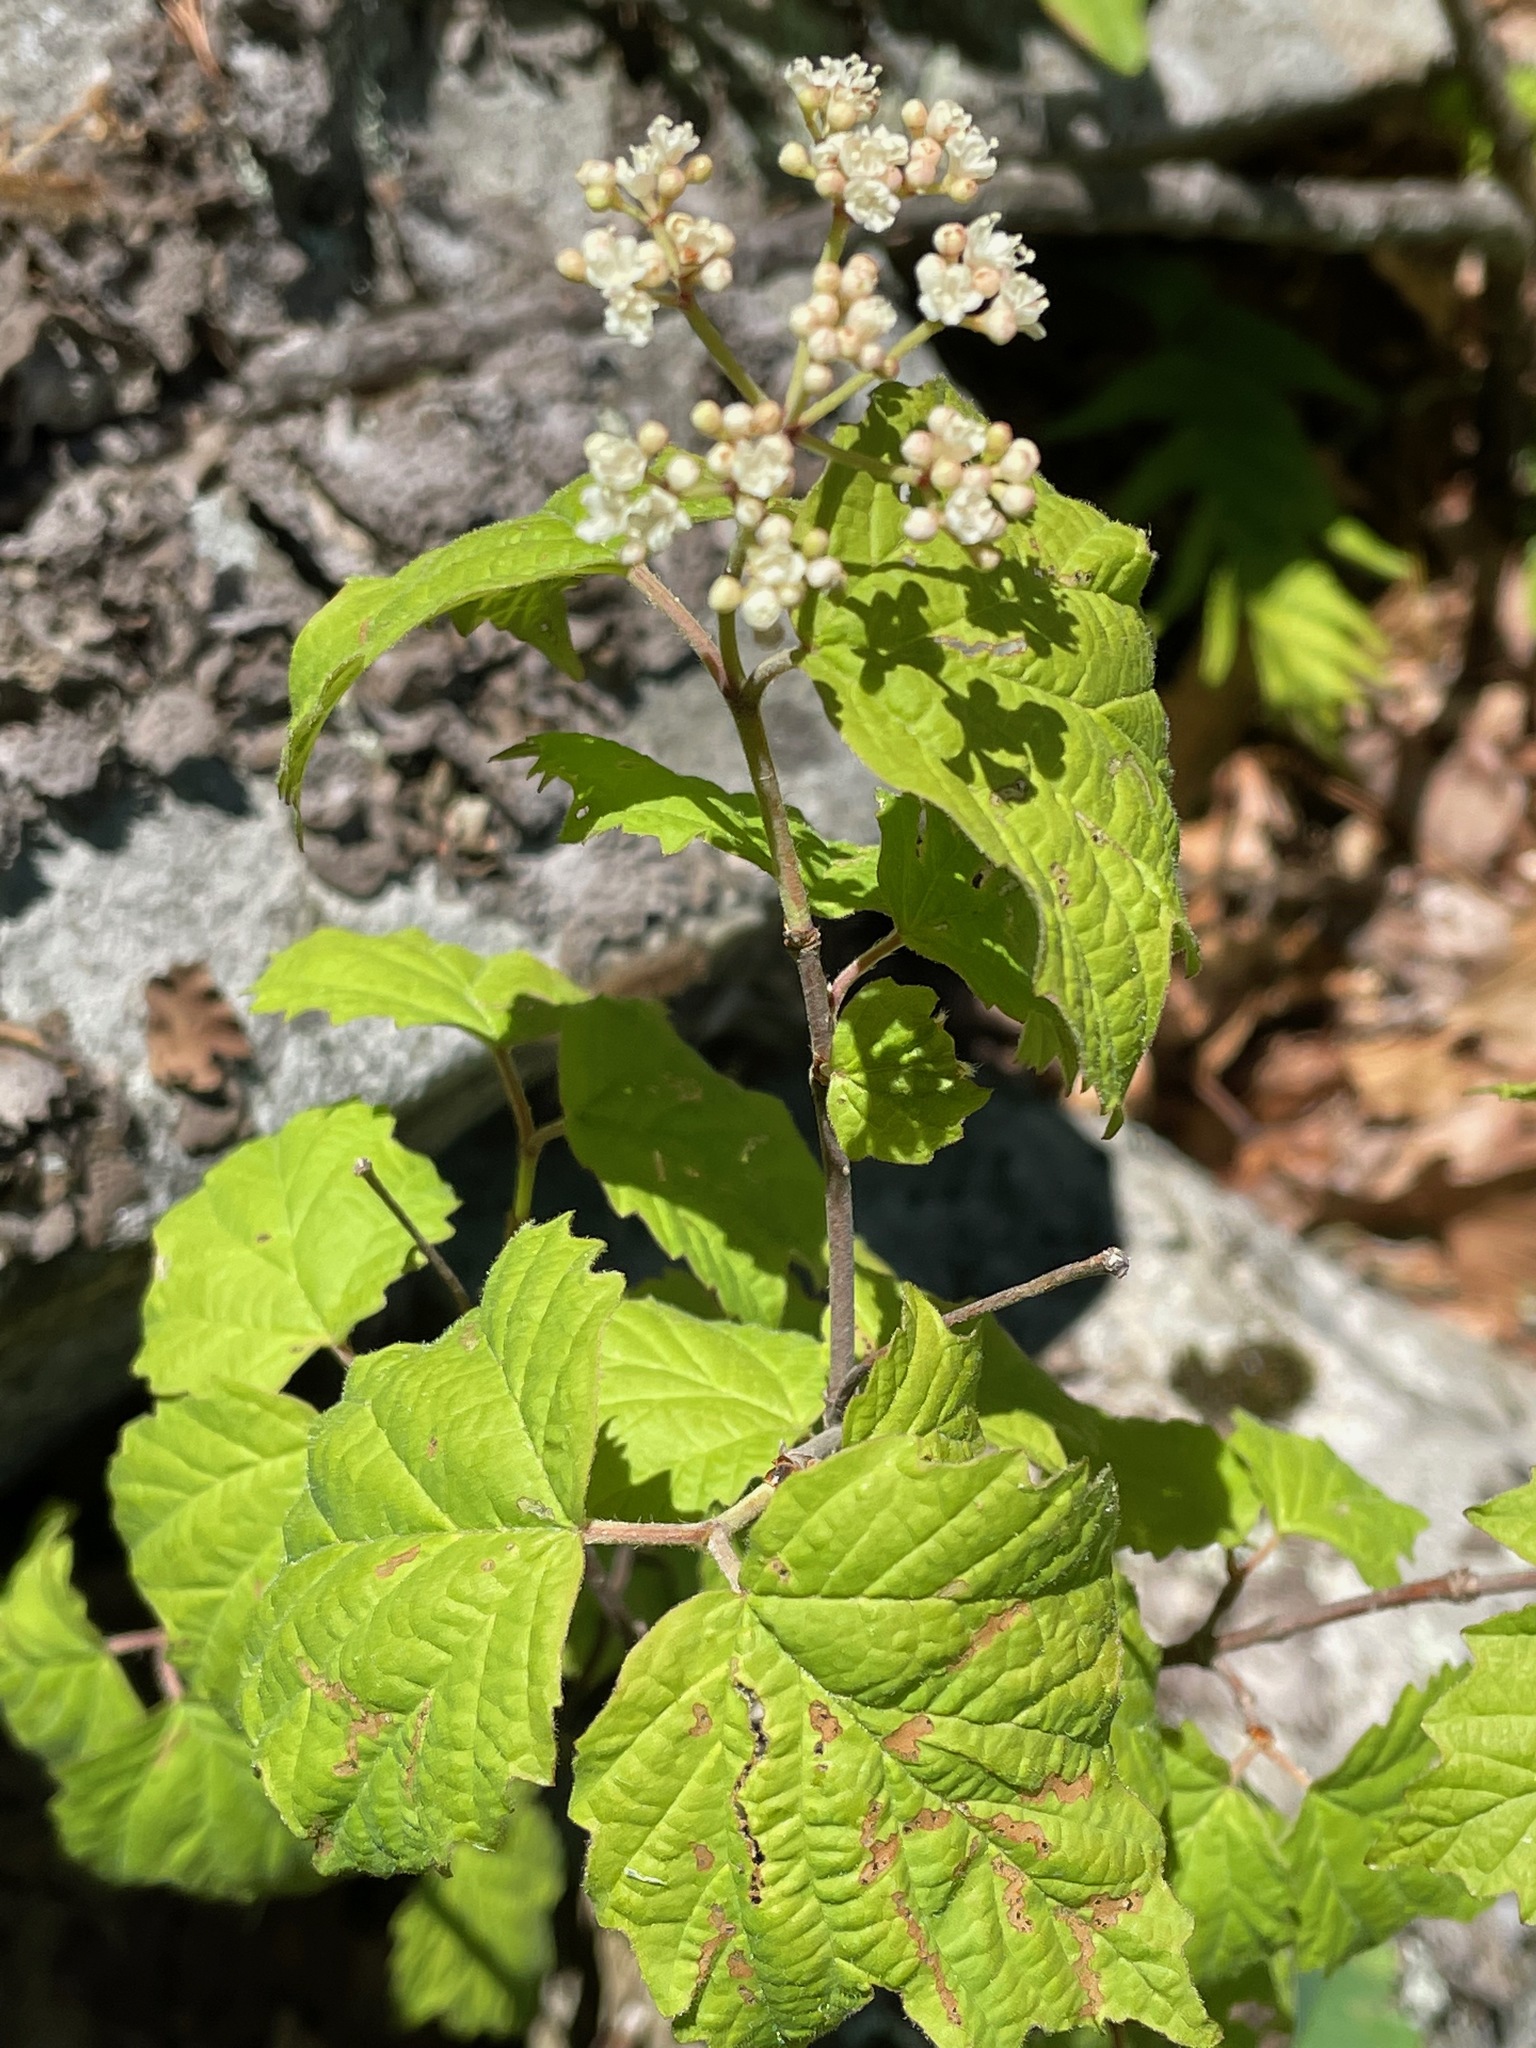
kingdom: Plantae
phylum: Tracheophyta
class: Magnoliopsida
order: Dipsacales
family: Viburnaceae
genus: Viburnum
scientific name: Viburnum acerifolium
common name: Dockmackie
